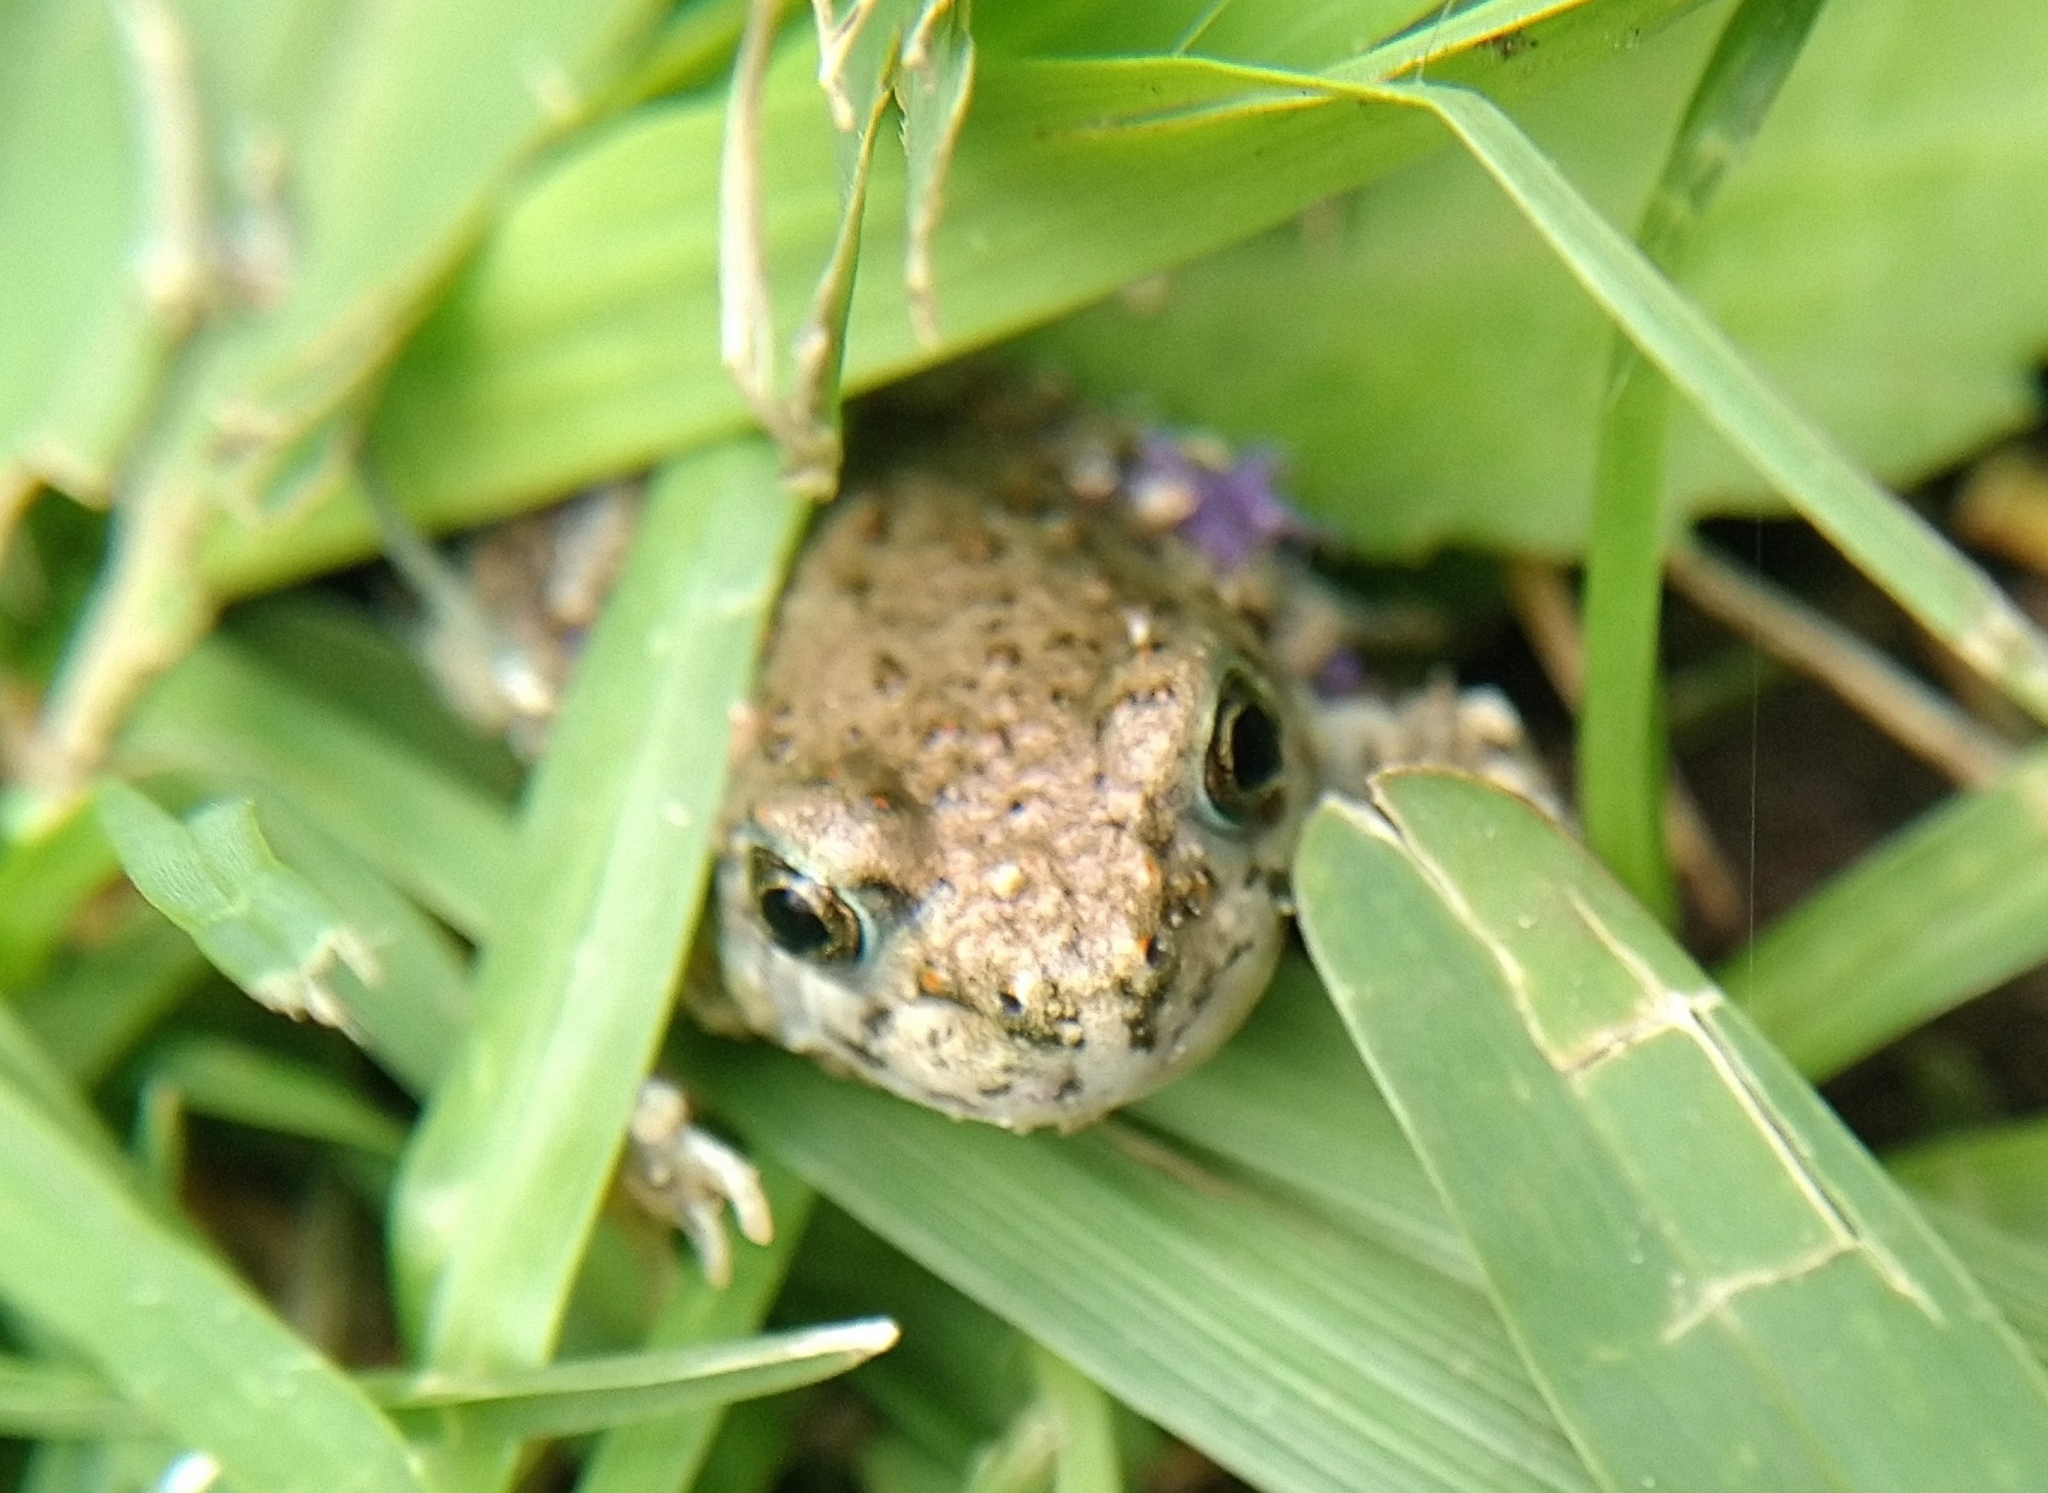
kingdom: Animalia
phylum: Chordata
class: Amphibia
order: Anura
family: Scaphiopodidae
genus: Spea
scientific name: Spea multiplicata
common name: Mexican spadefoot
